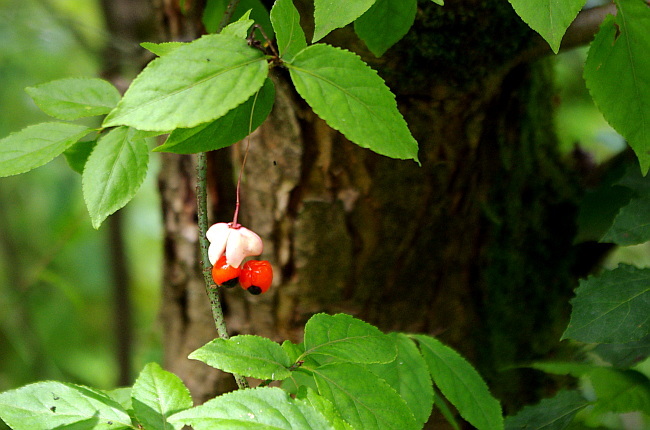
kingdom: Plantae
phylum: Tracheophyta
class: Magnoliopsida
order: Celastrales
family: Celastraceae
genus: Euonymus
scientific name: Euonymus verrucosus
